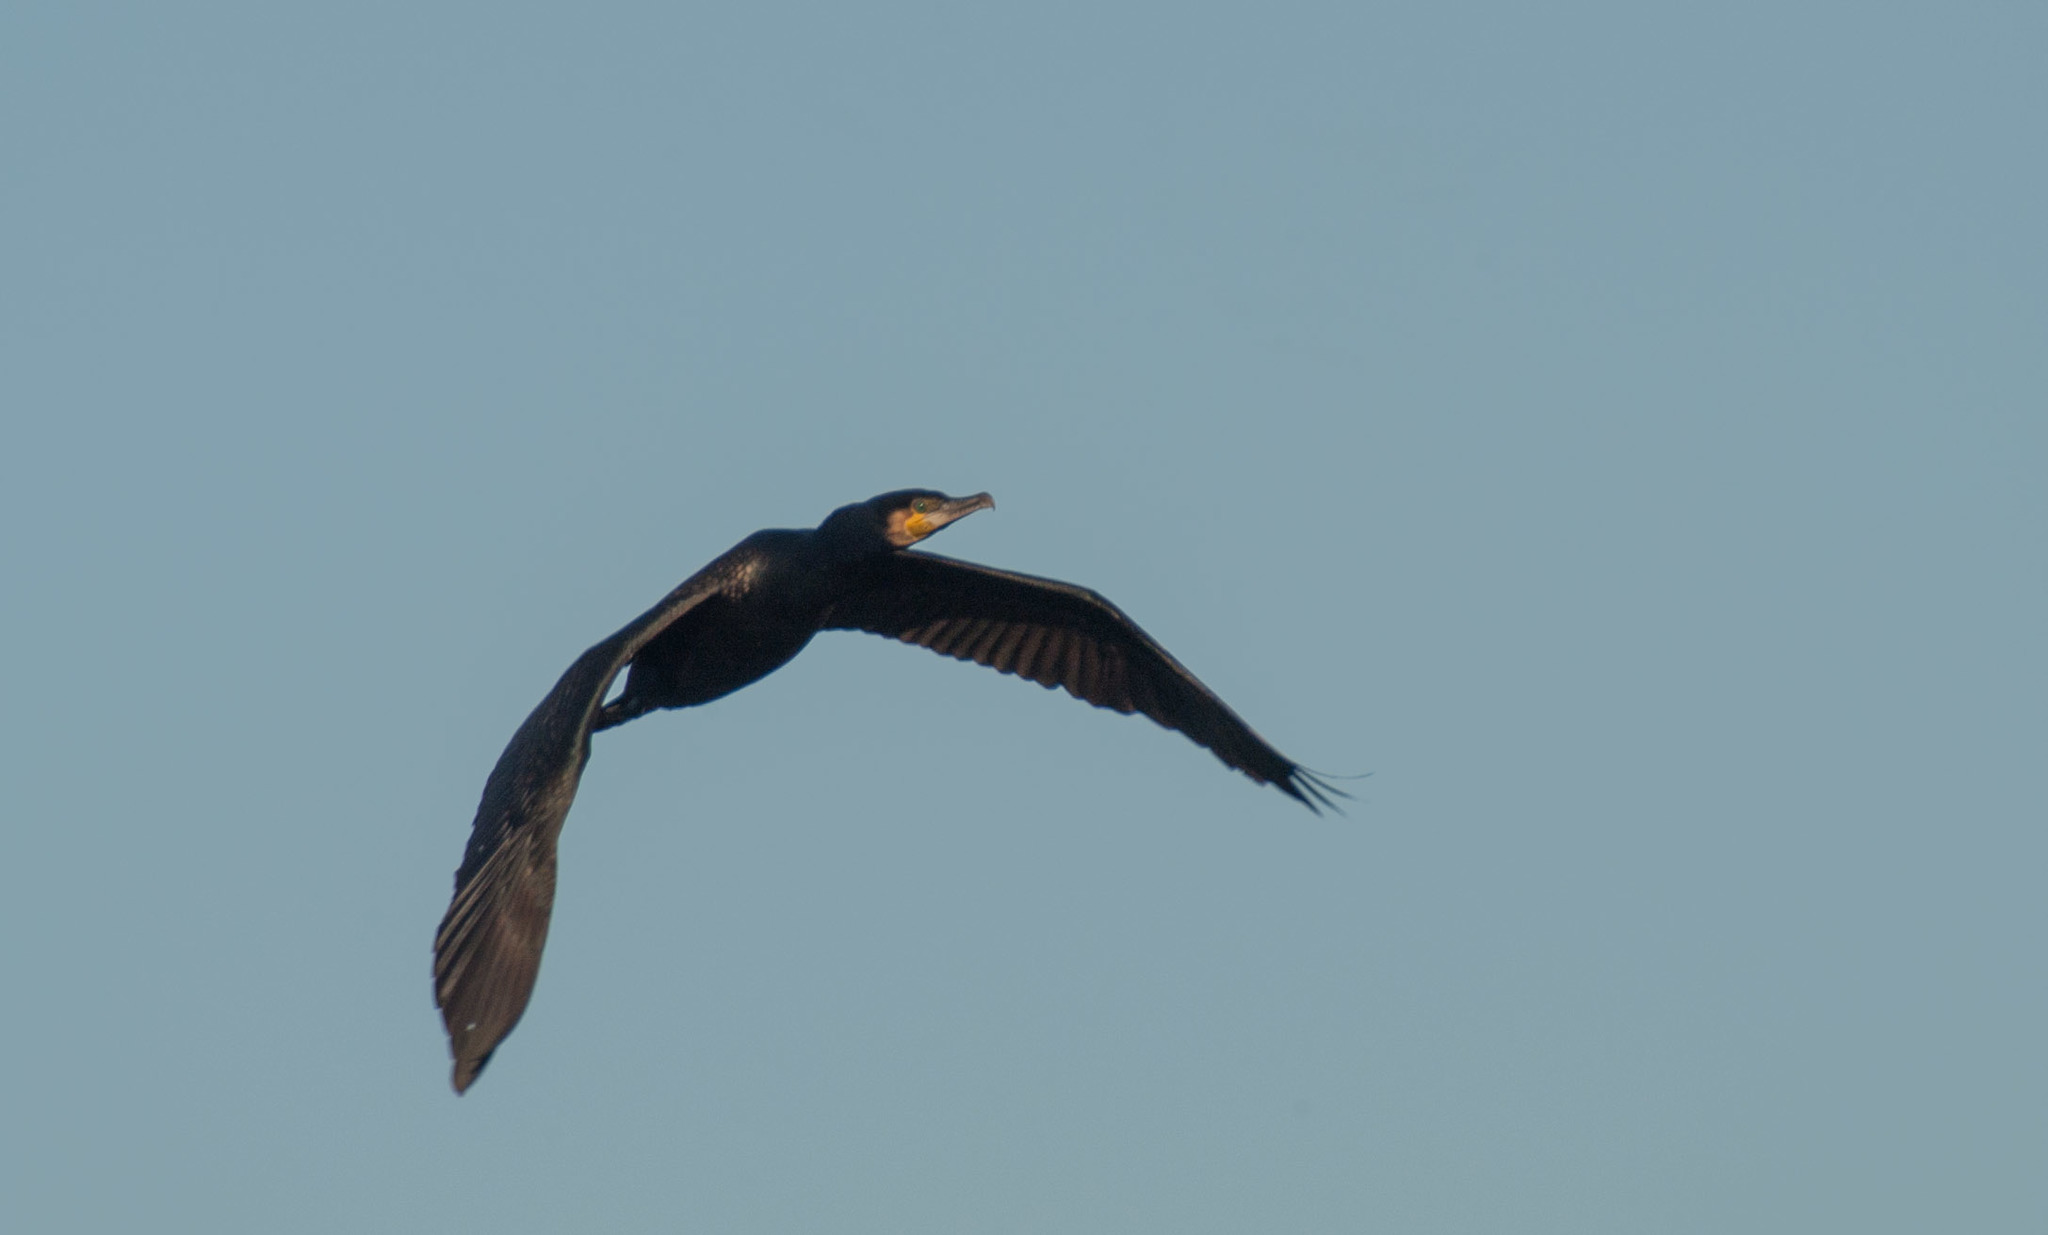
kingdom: Animalia
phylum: Chordata
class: Aves
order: Suliformes
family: Phalacrocoracidae
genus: Phalacrocorax
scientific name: Phalacrocorax carbo
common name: Great cormorant
